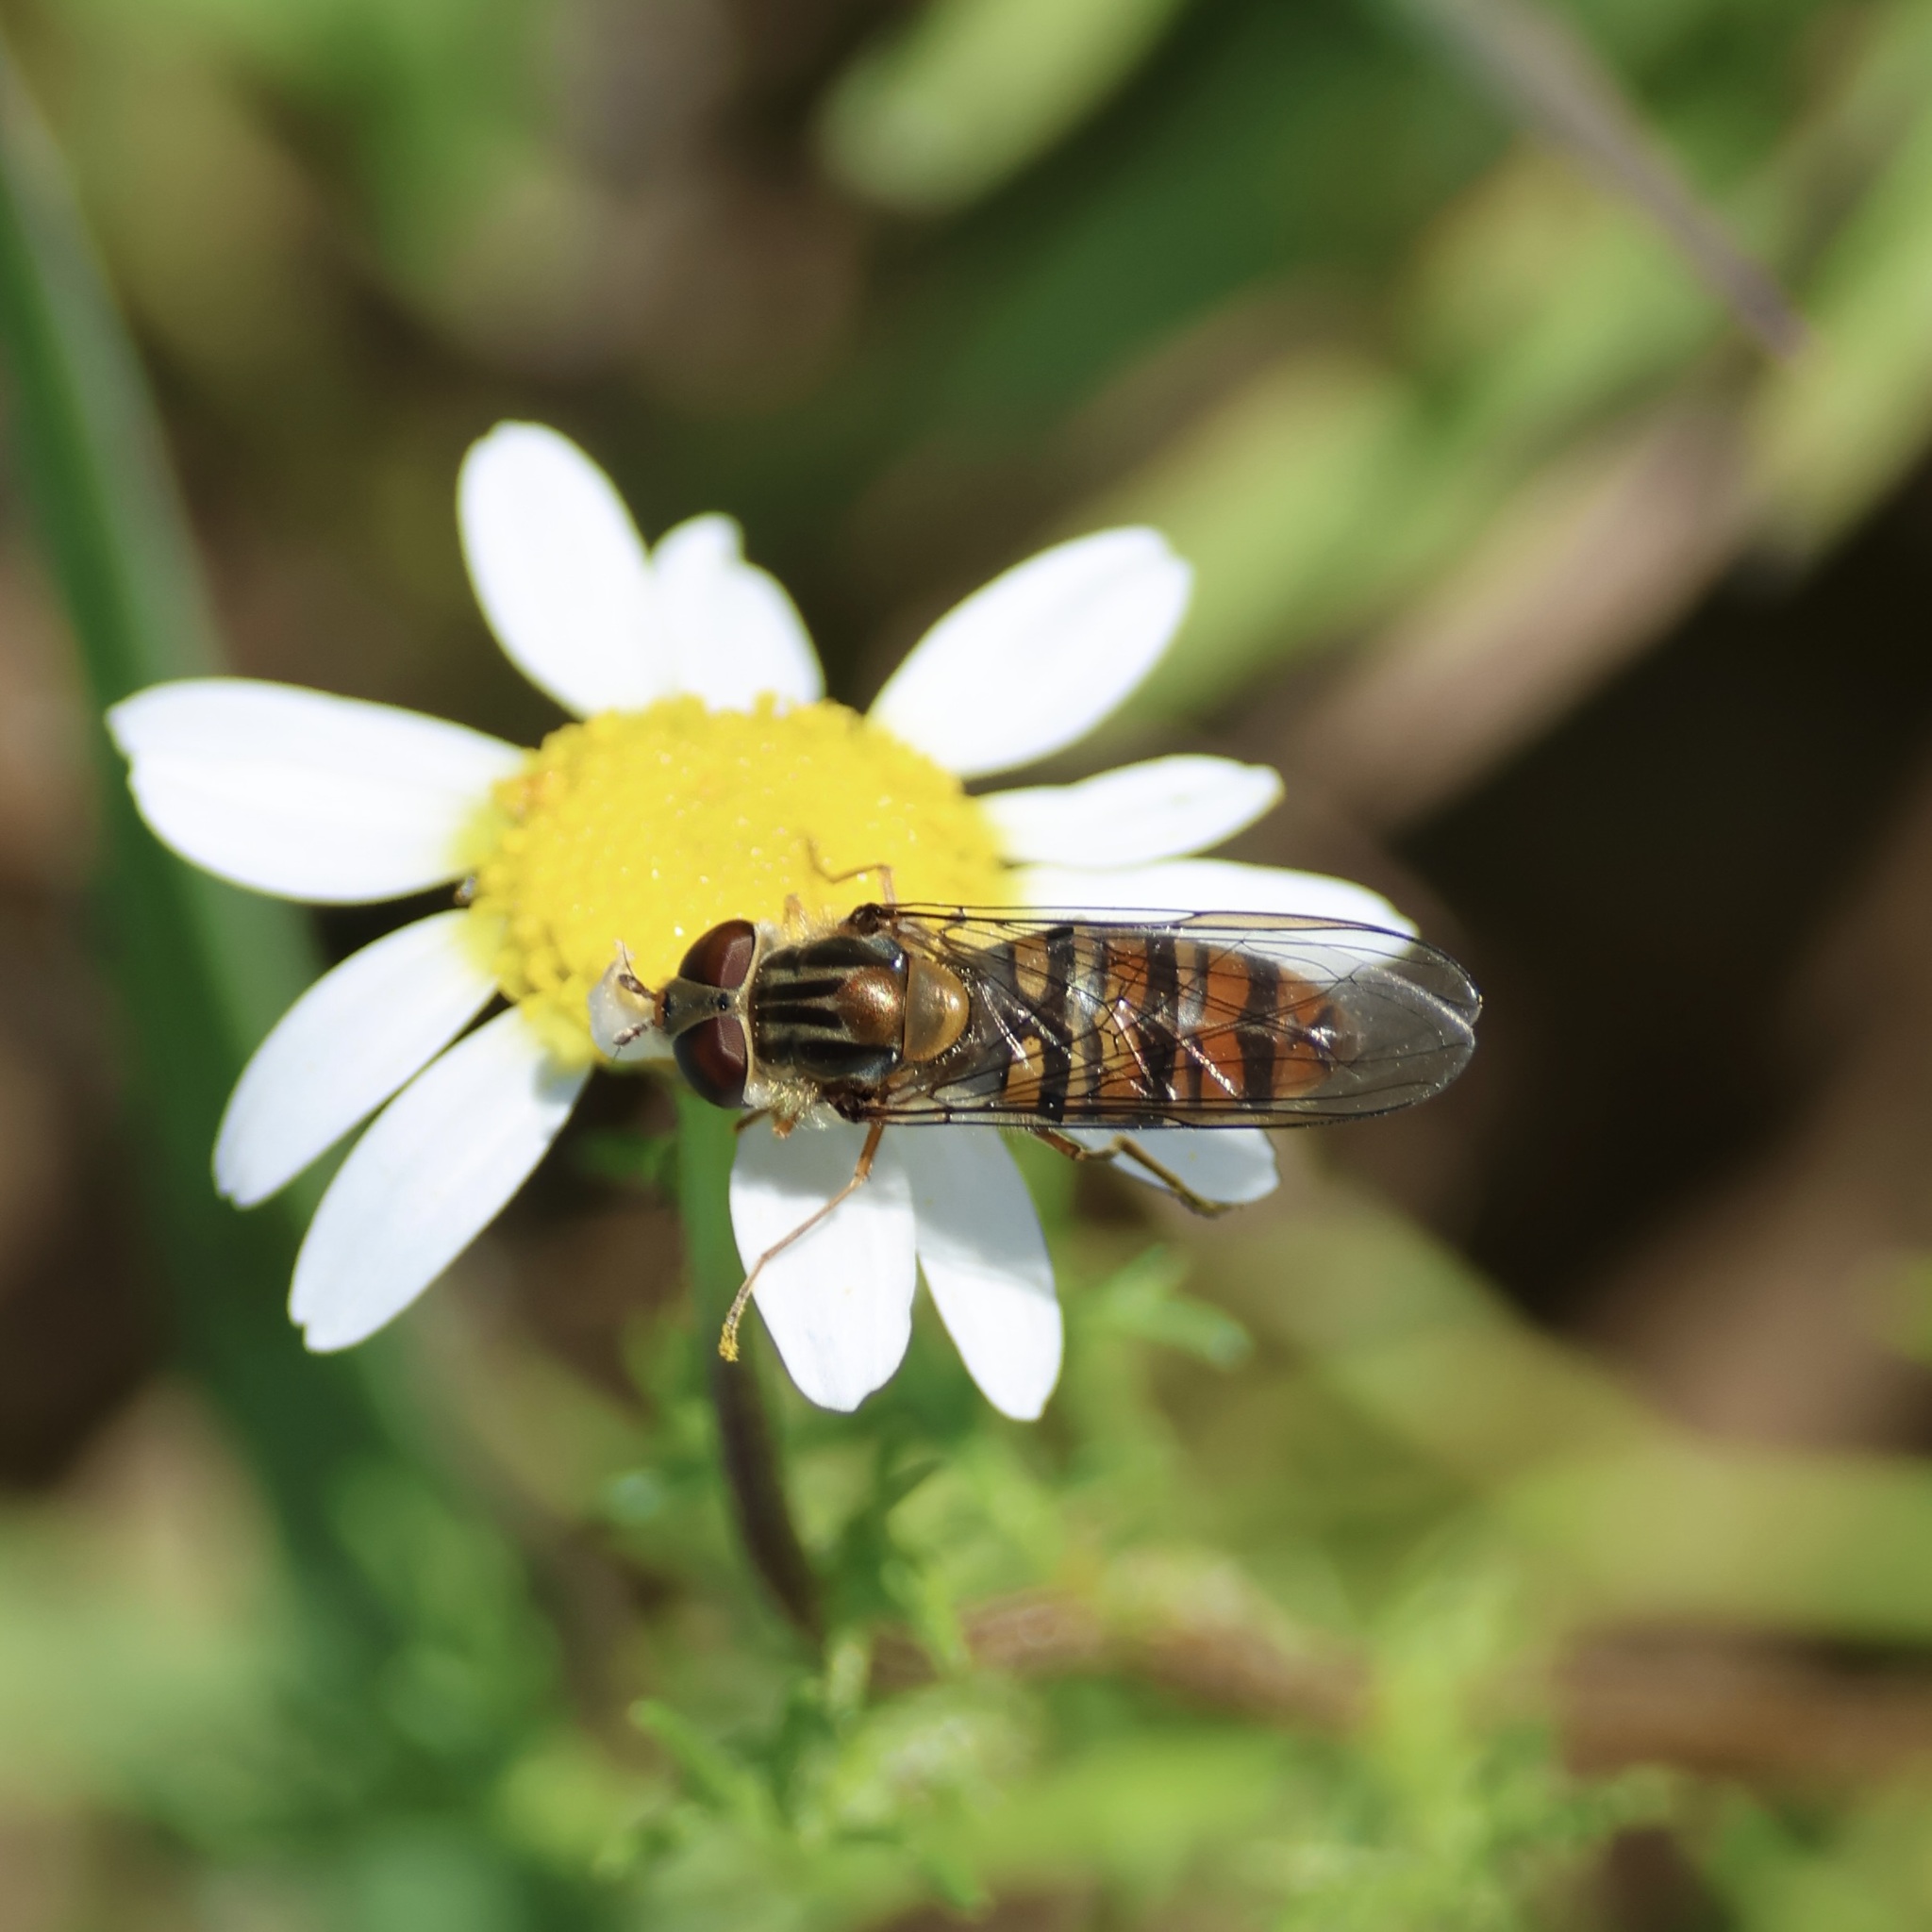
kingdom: Animalia
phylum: Arthropoda
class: Insecta
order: Diptera
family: Syrphidae
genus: Episyrphus
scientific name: Episyrphus balteatus
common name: Marmalade hoverfly
